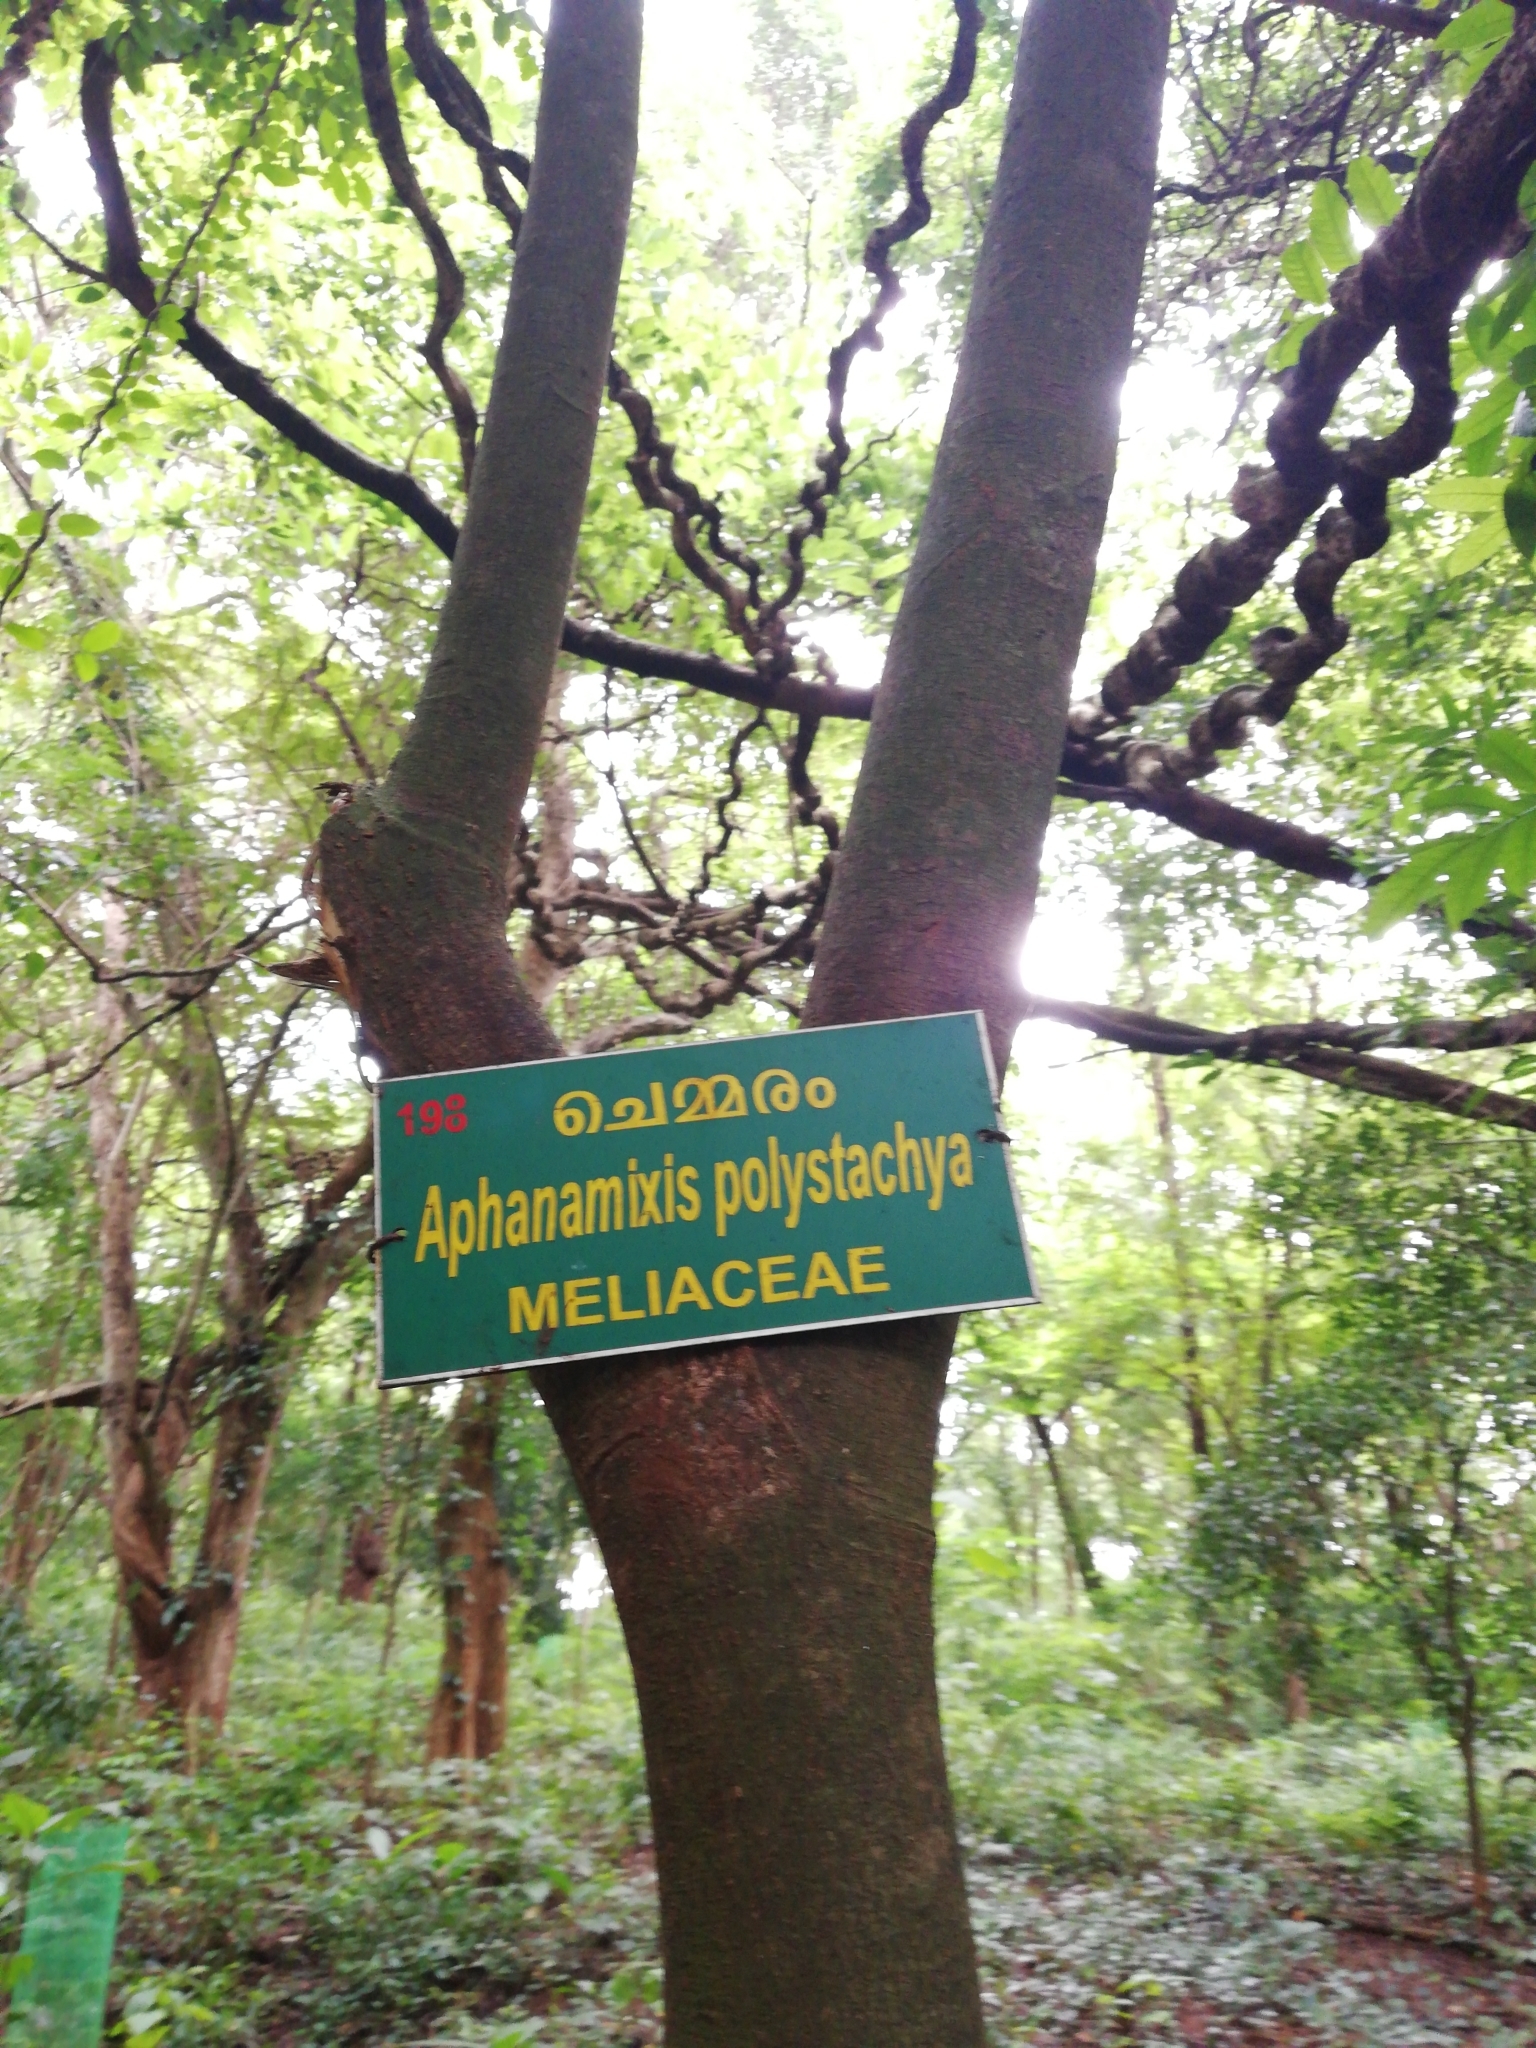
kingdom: Plantae
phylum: Tracheophyta
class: Magnoliopsida
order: Sapindales
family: Meliaceae
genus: Aphanamixis
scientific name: Aphanamixis polystachya
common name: Pithraj tree
